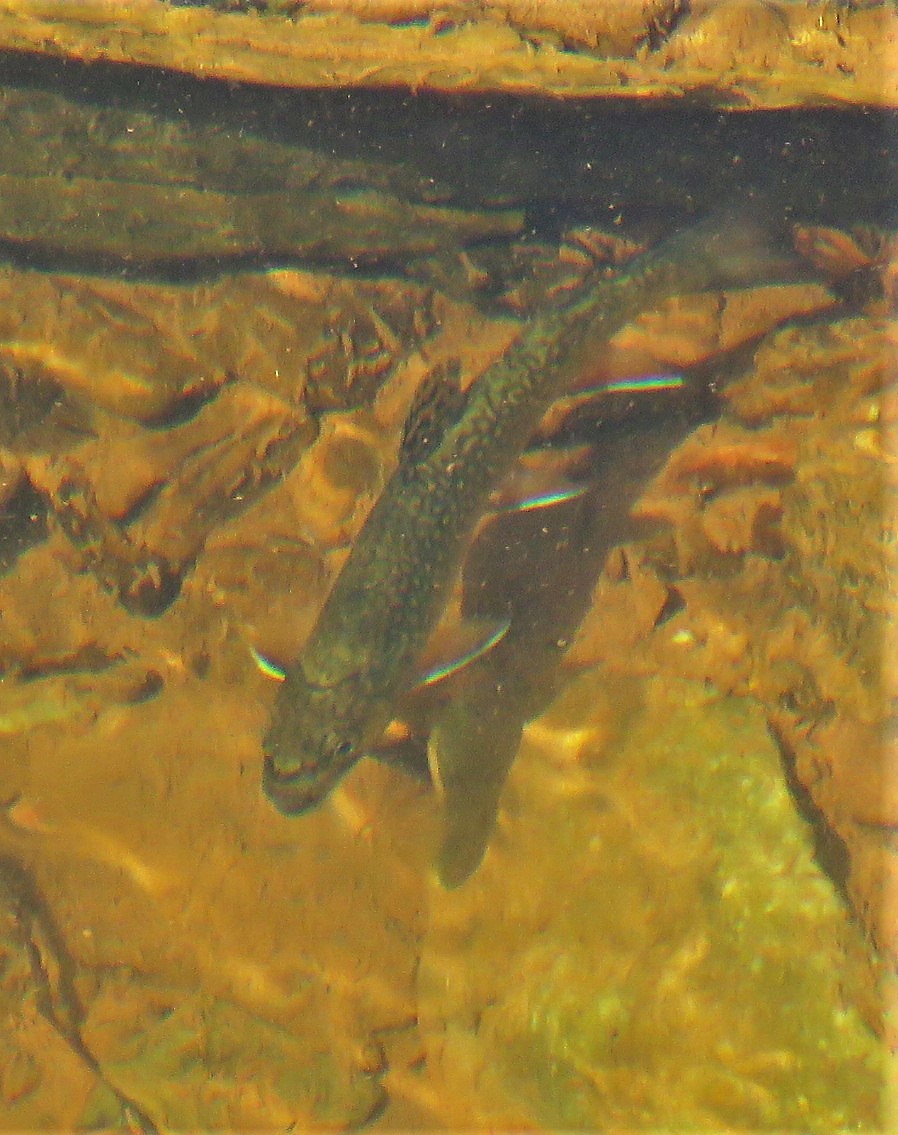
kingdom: Animalia
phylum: Chordata
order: Salmoniformes
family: Salmonidae
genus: Salvelinus
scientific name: Salvelinus fontinalis
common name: Brook trout
